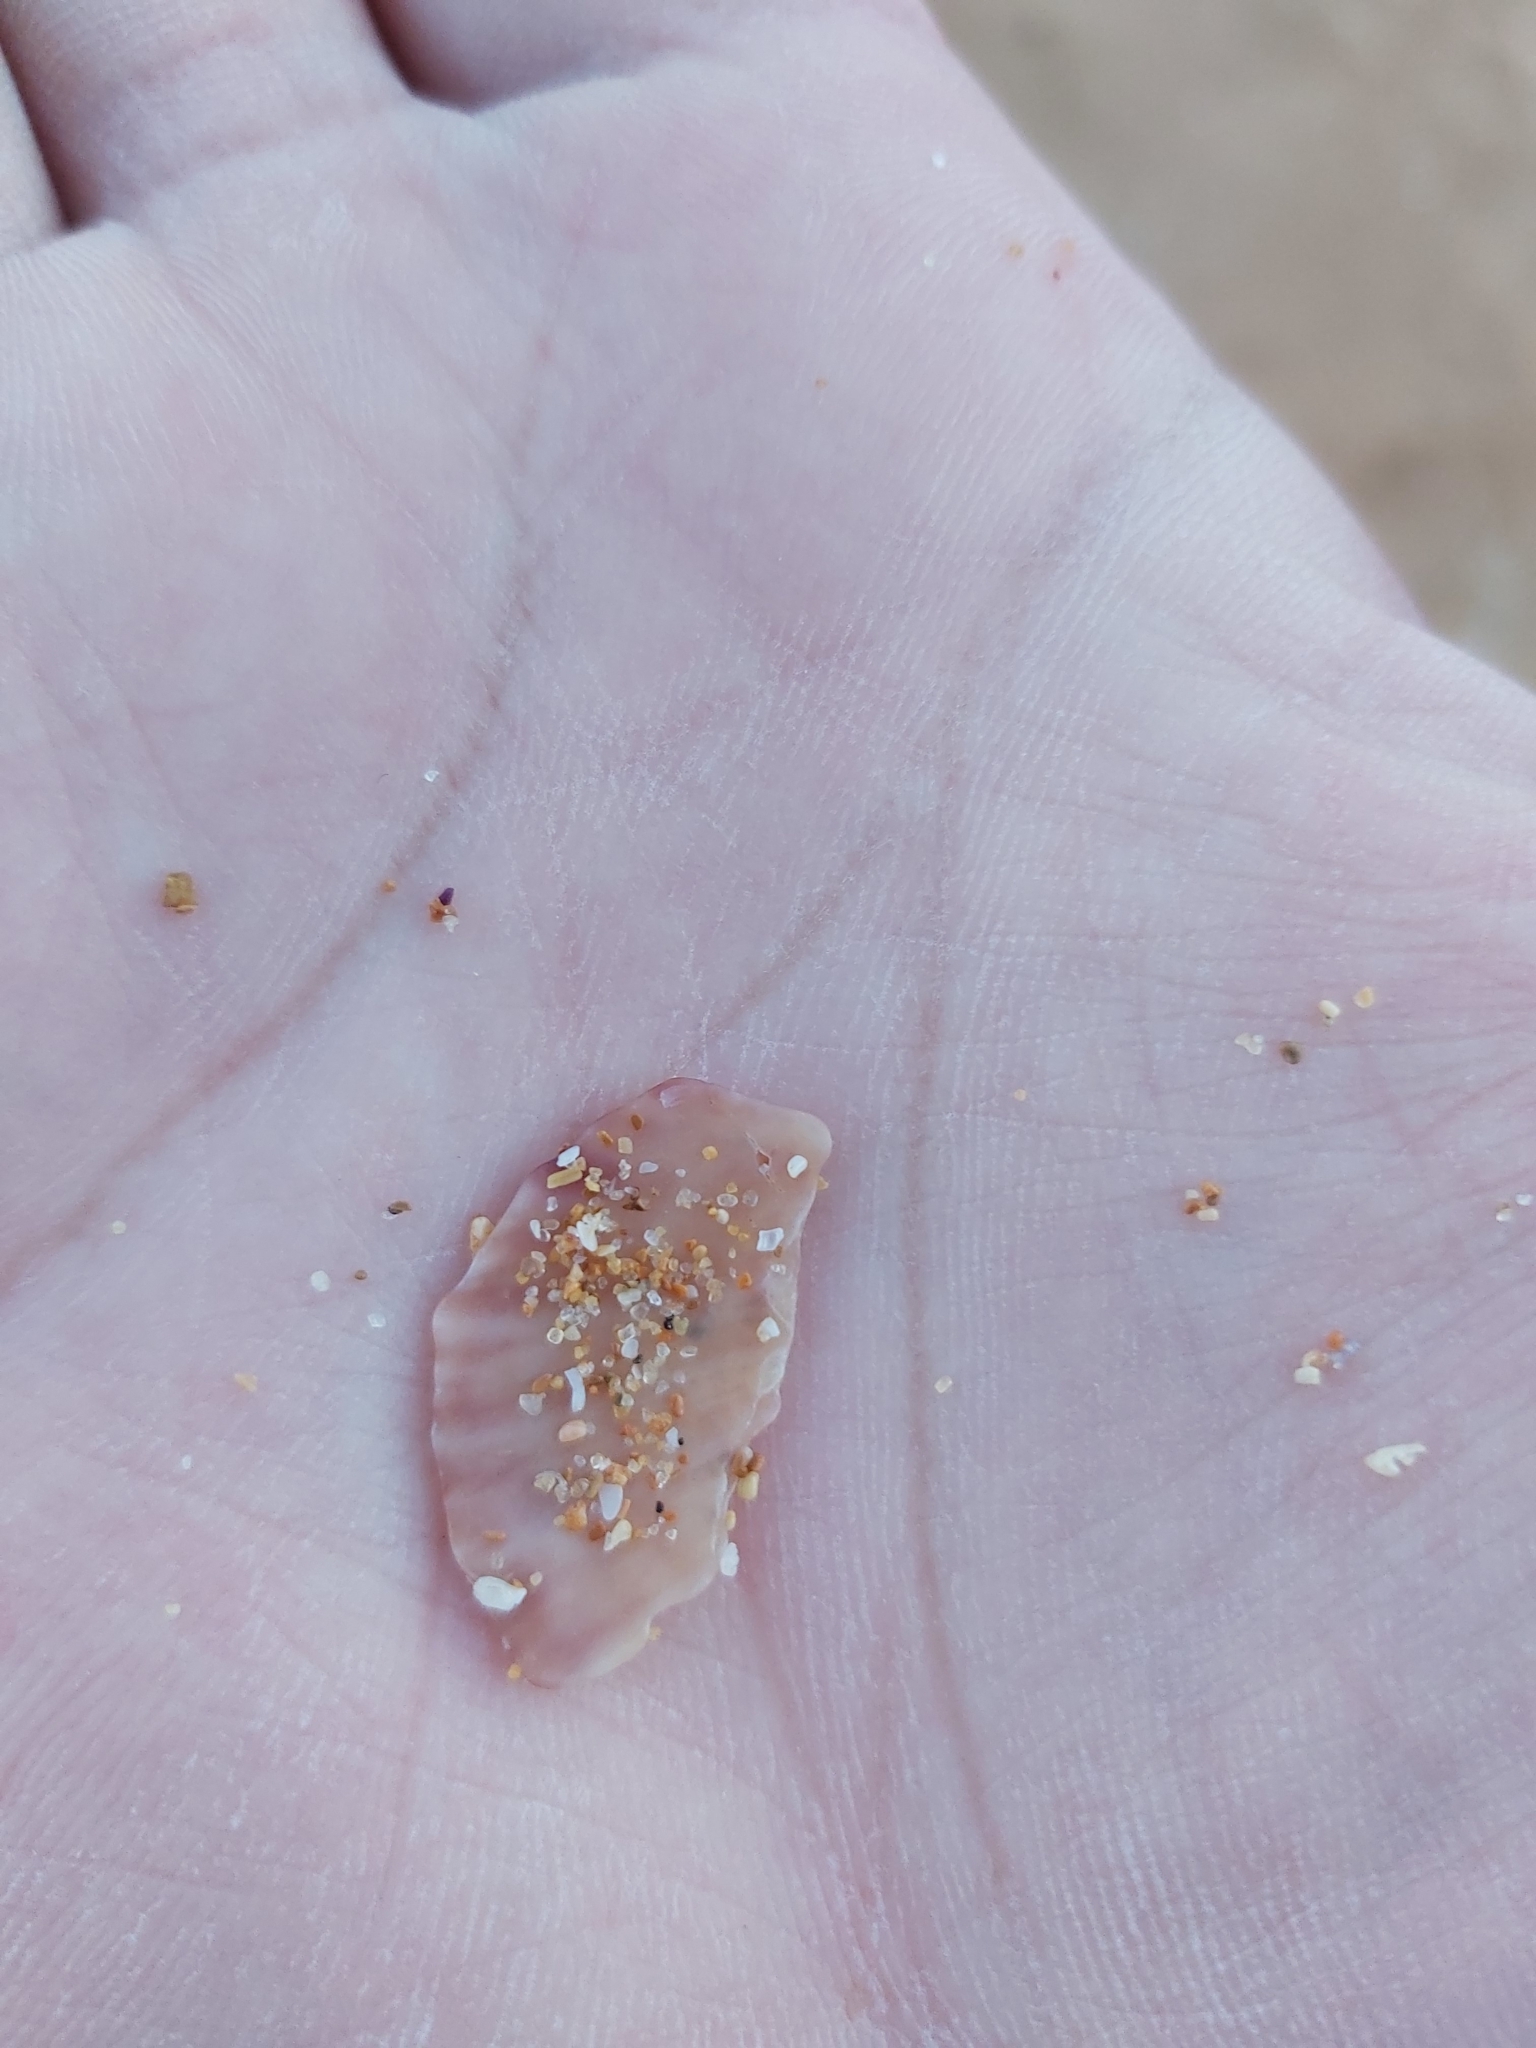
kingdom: Animalia
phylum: Mollusca
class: Bivalvia
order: Pectinida
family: Pectinidae
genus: Scaeochlamys
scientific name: Scaeochlamys livida
